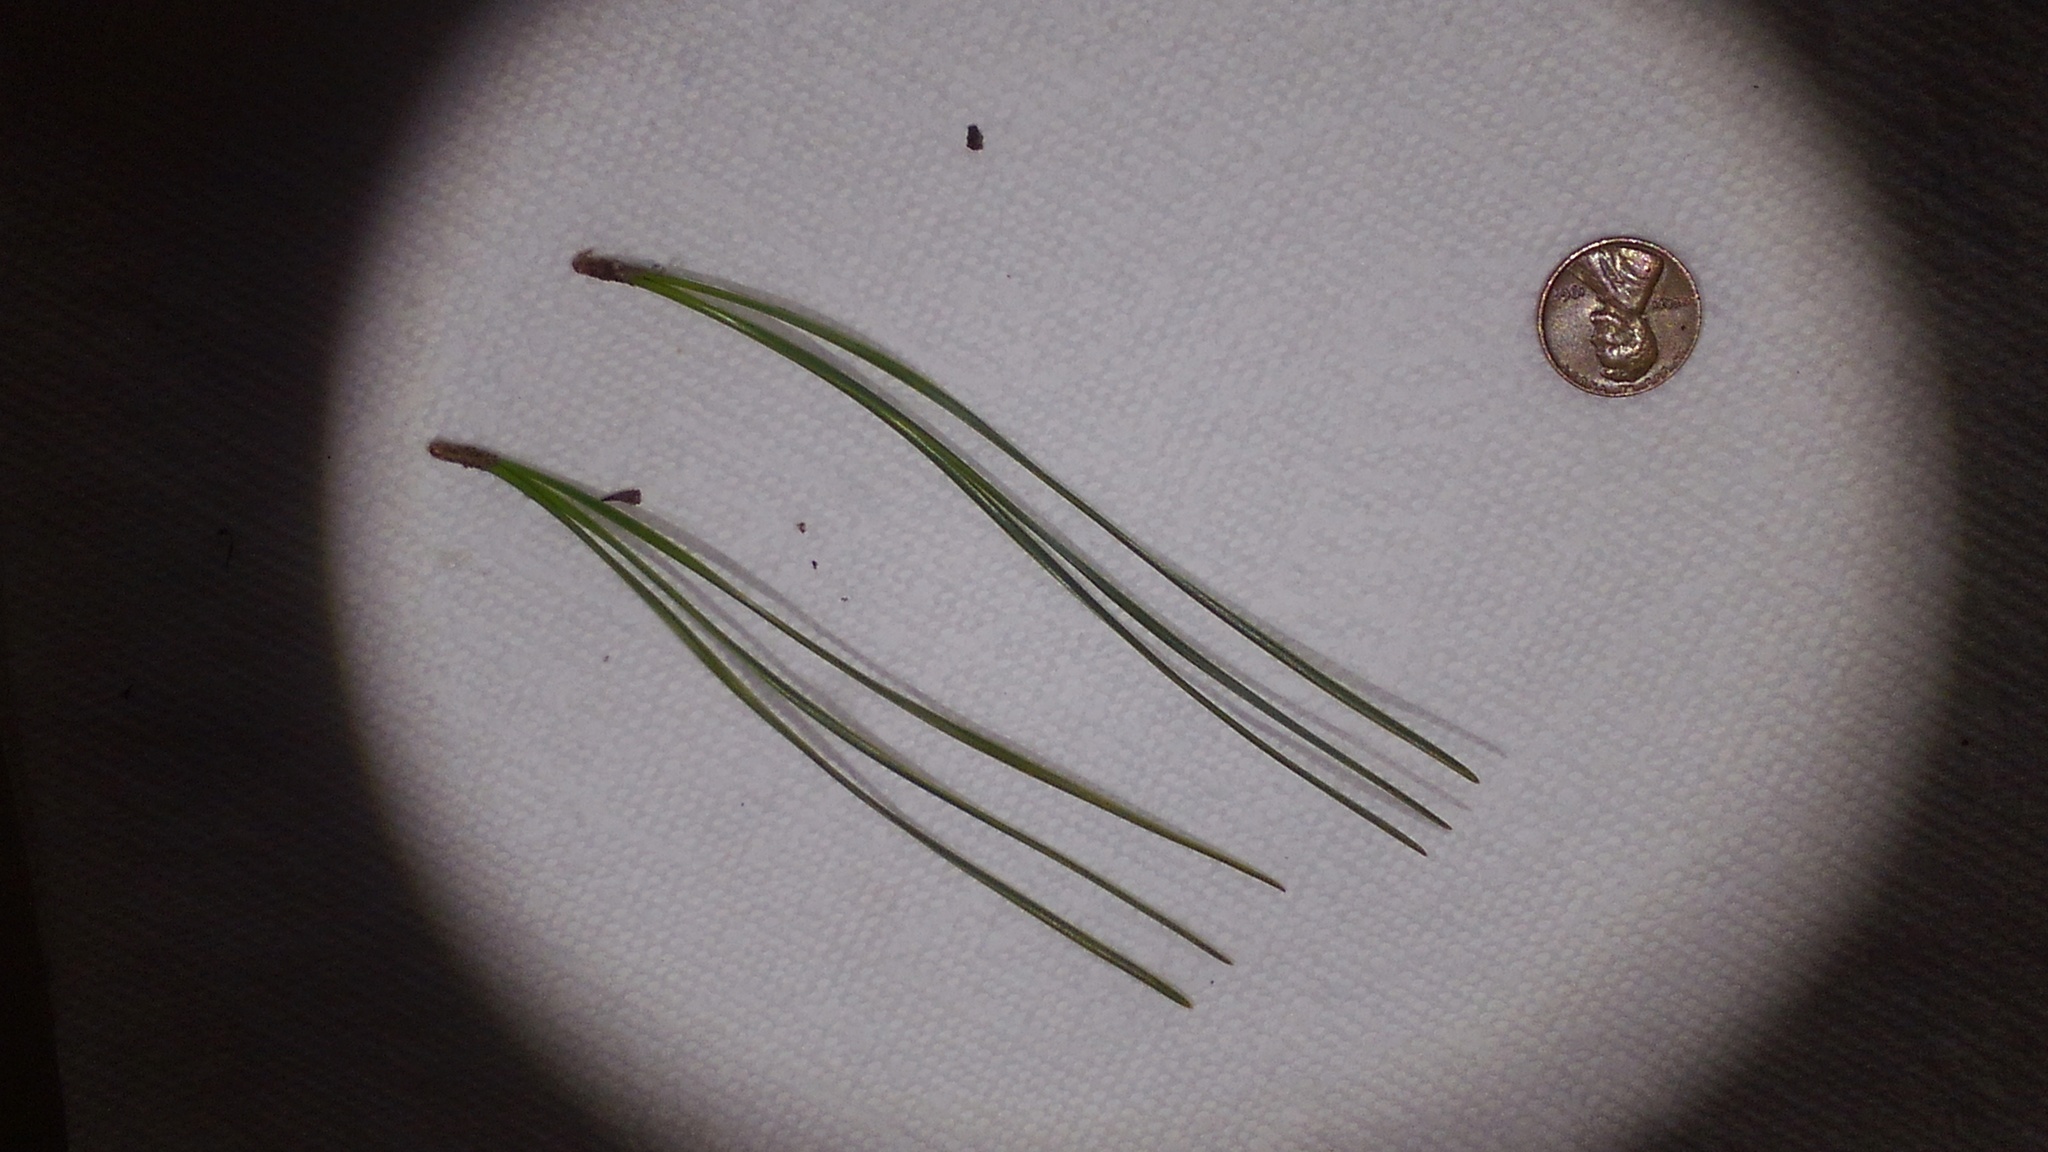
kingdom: Plantae
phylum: Tracheophyta
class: Pinopsida
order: Pinales
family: Pinaceae
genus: Pinus
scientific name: Pinus rigida
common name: Pitch pine
